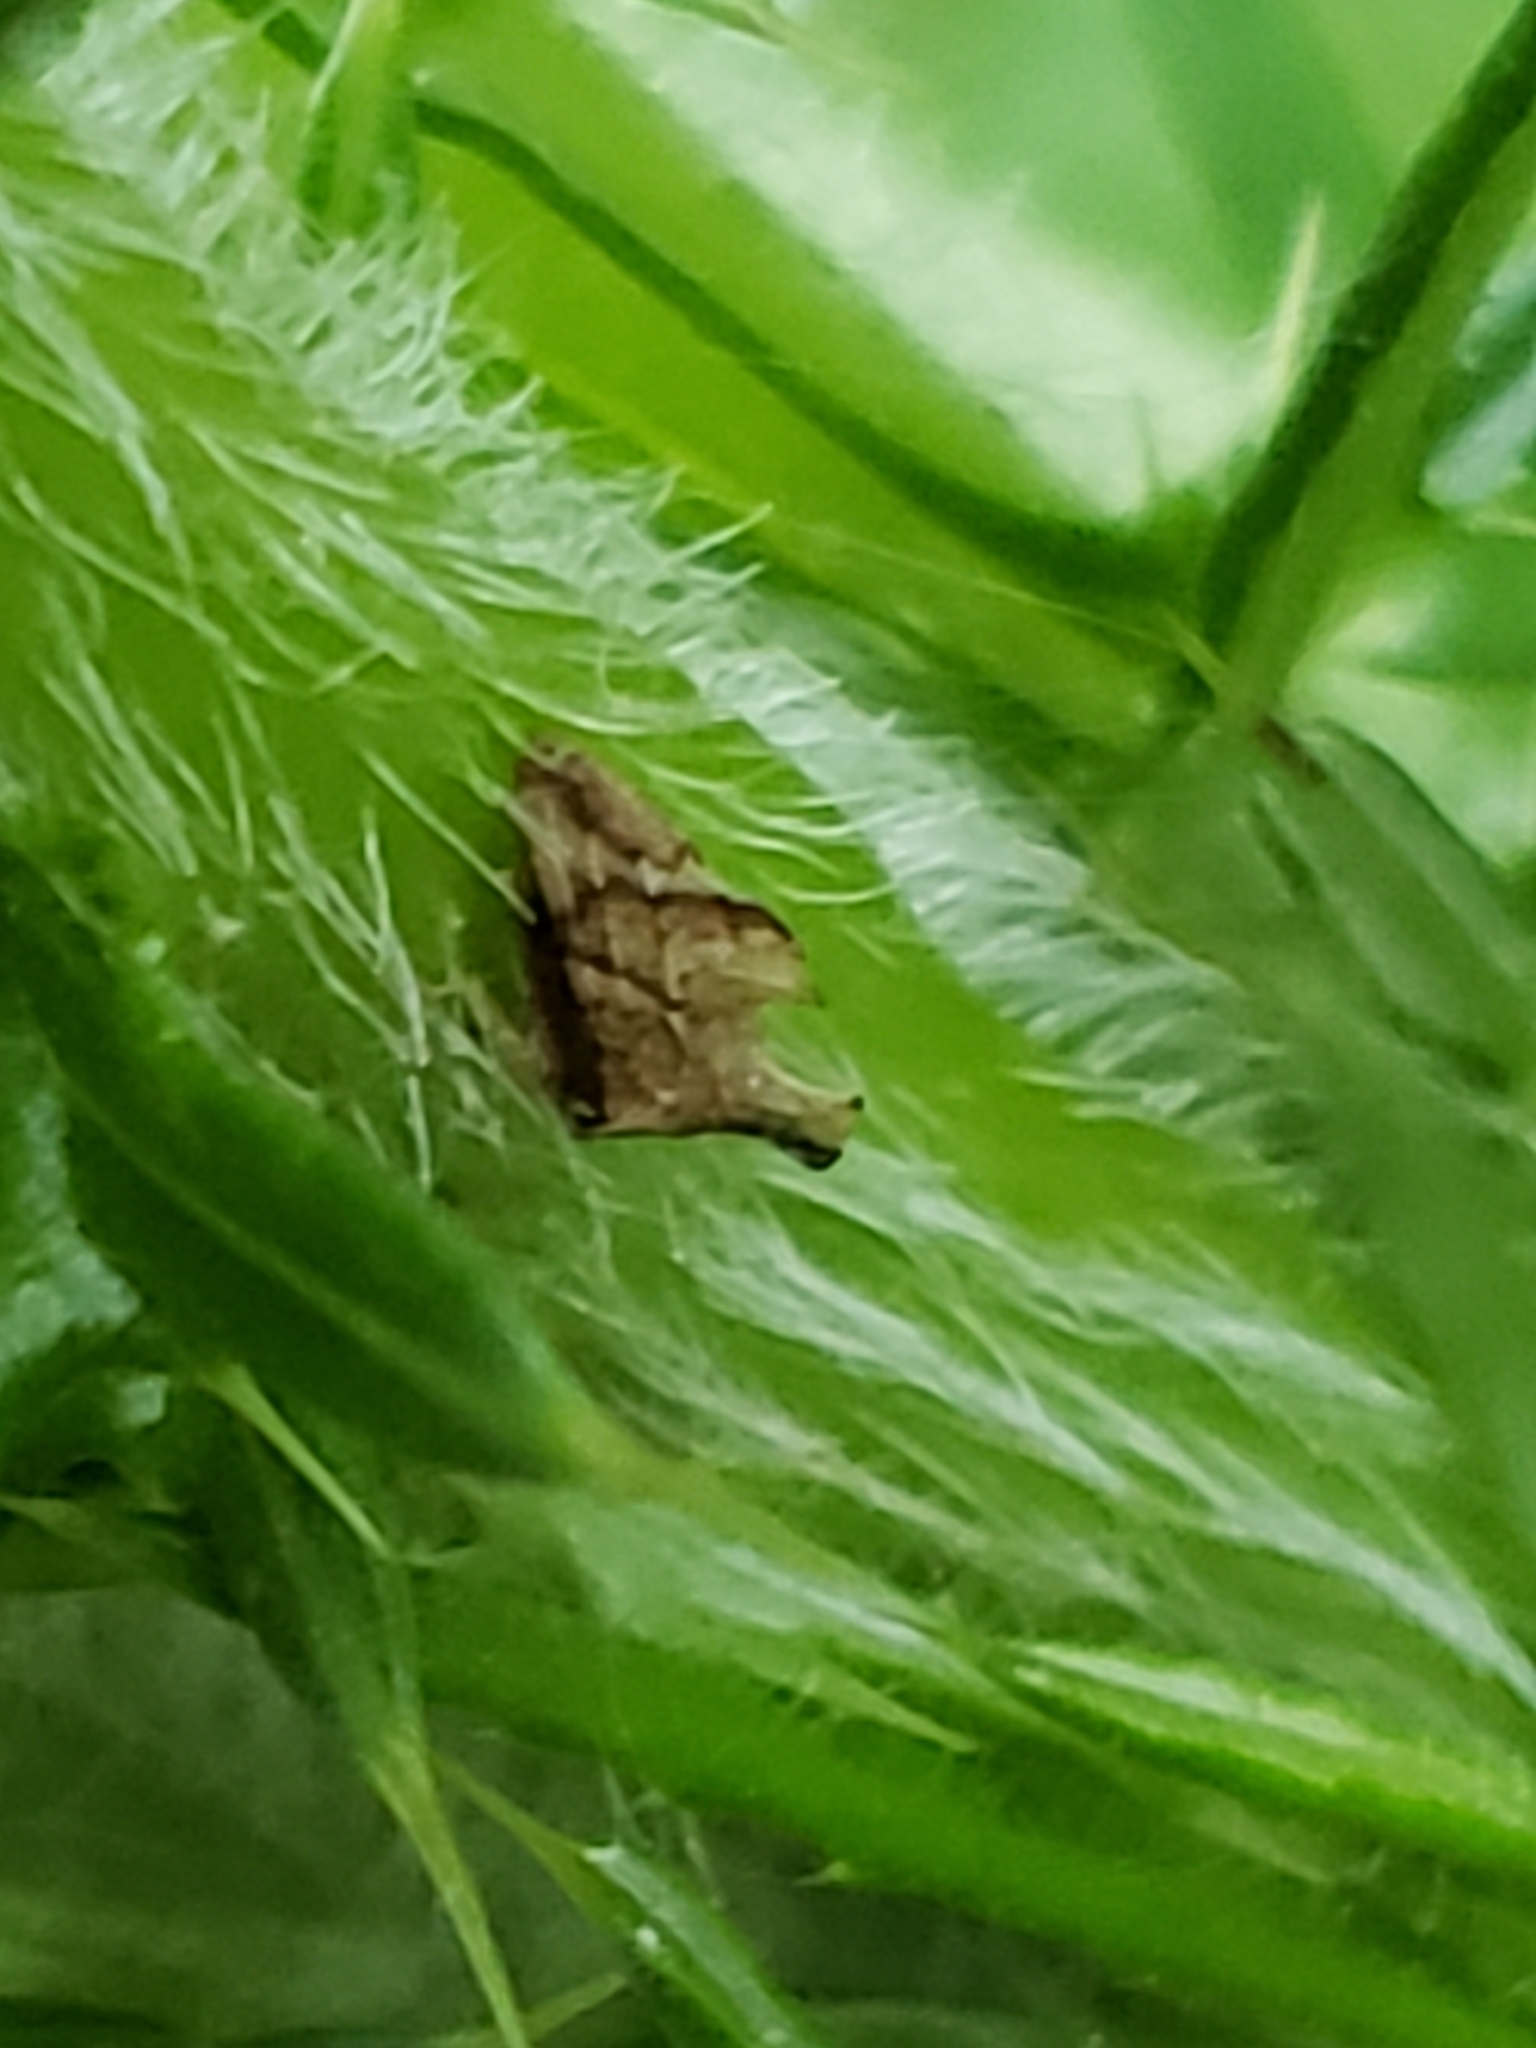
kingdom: Animalia
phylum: Arthropoda
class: Insecta
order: Hemiptera
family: Membracidae
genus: Entylia
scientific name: Entylia carinata
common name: Keeled treehopper
